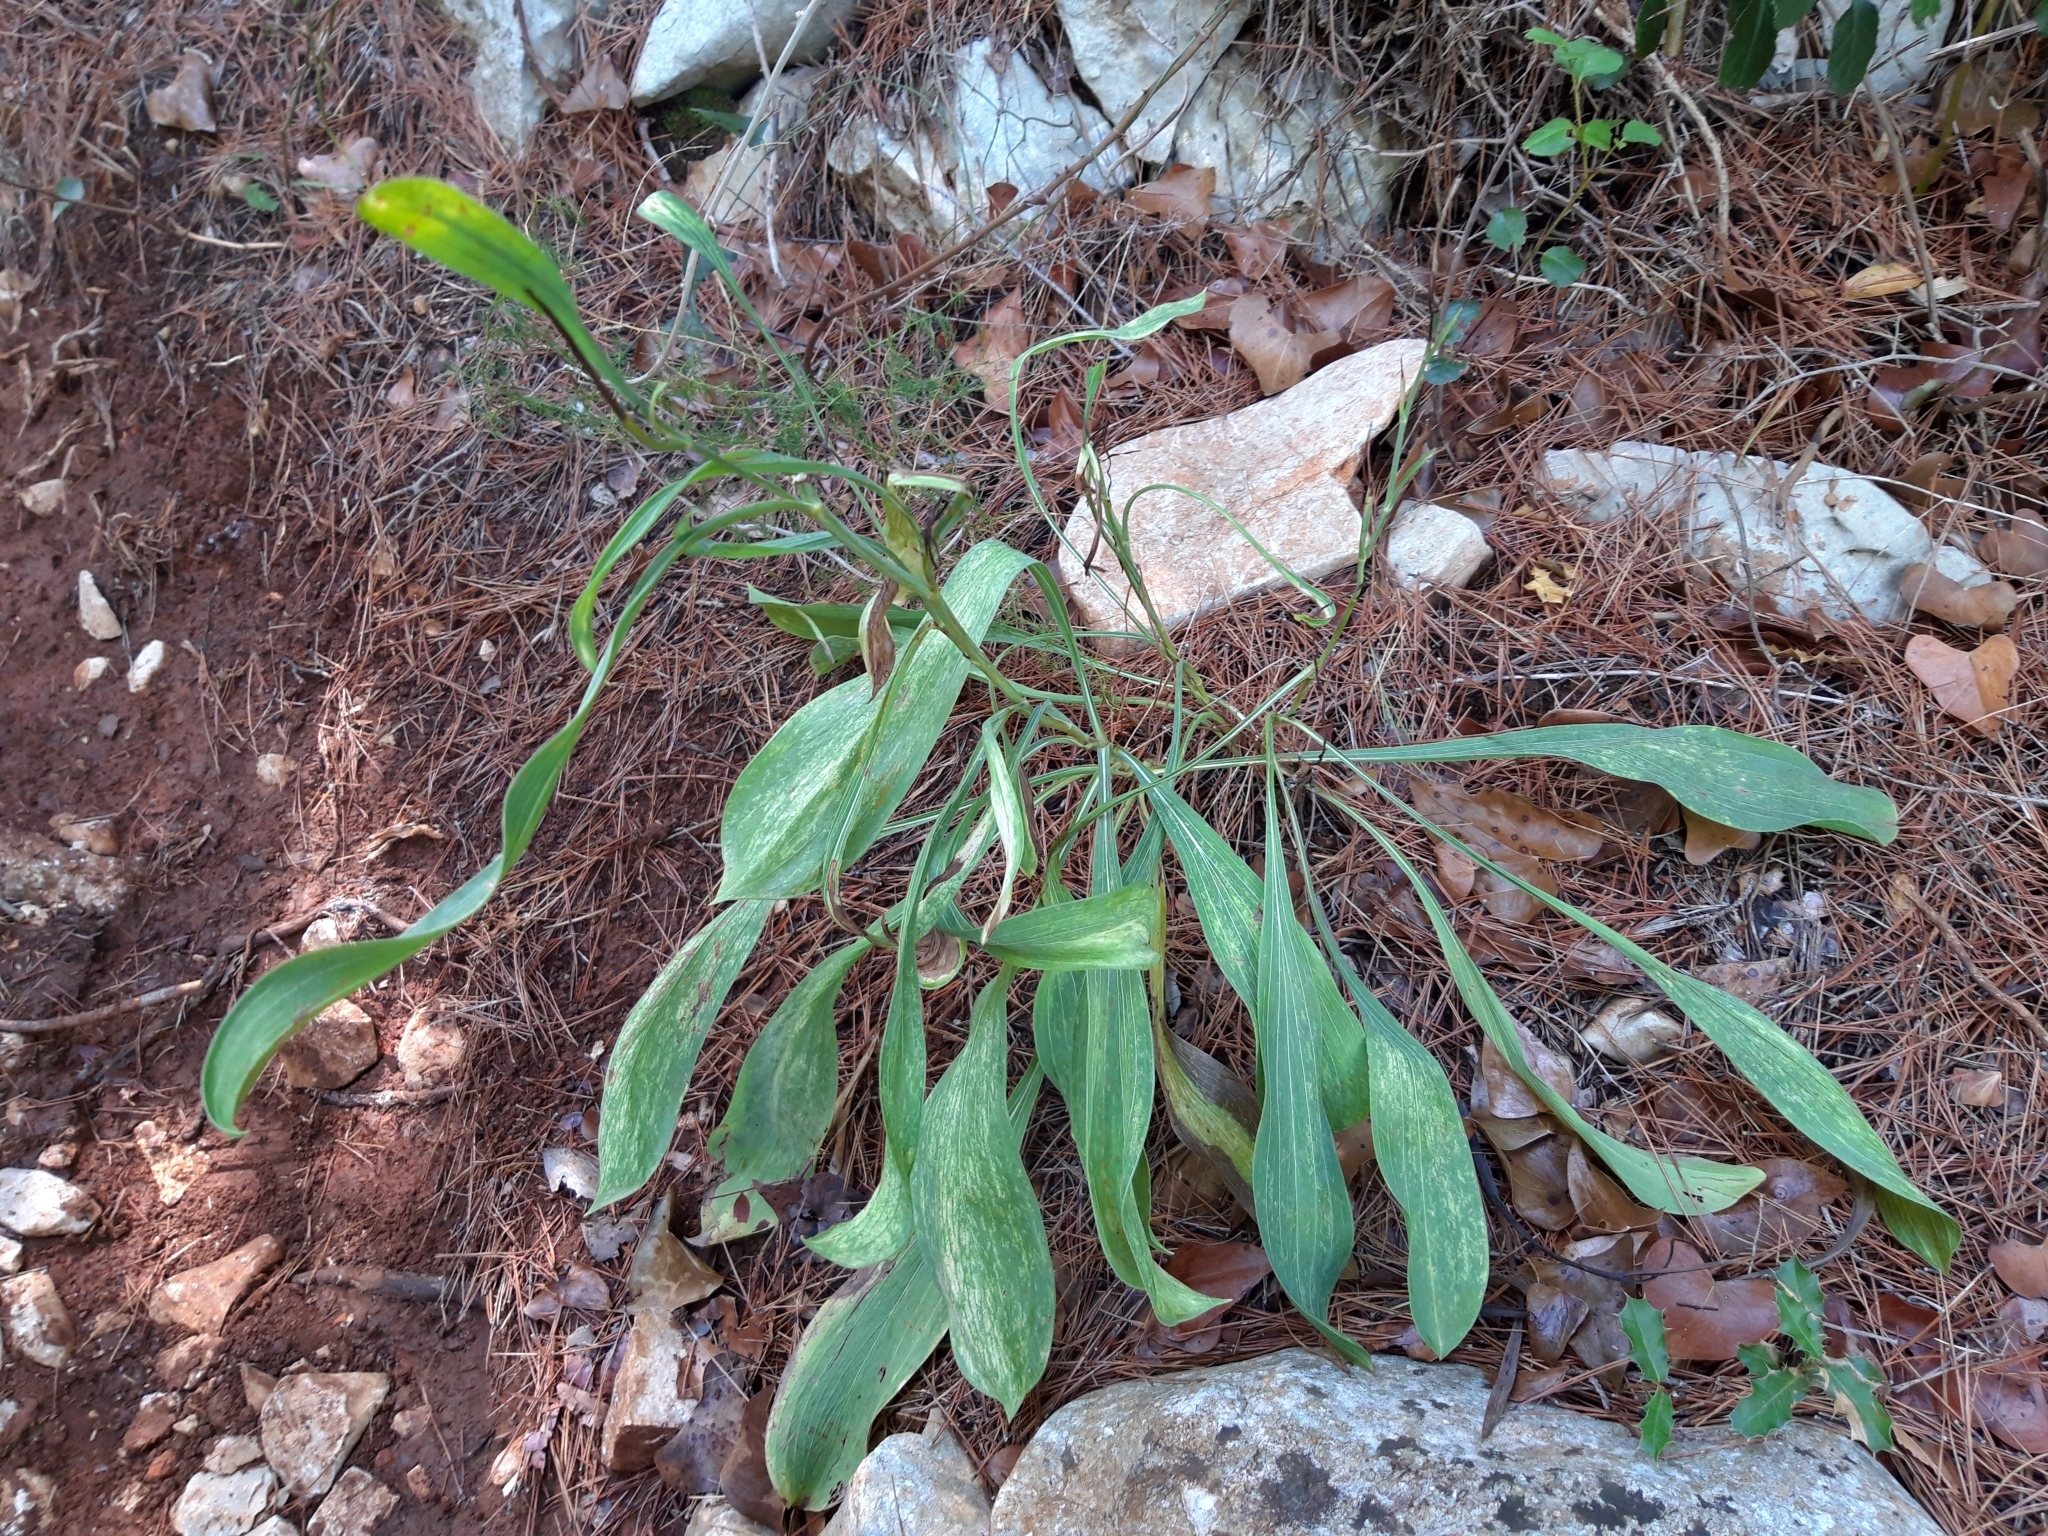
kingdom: Plantae
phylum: Tracheophyta
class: Magnoliopsida
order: Apiales
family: Apiaceae
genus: Bupleurum
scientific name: Bupleurum rigidum
